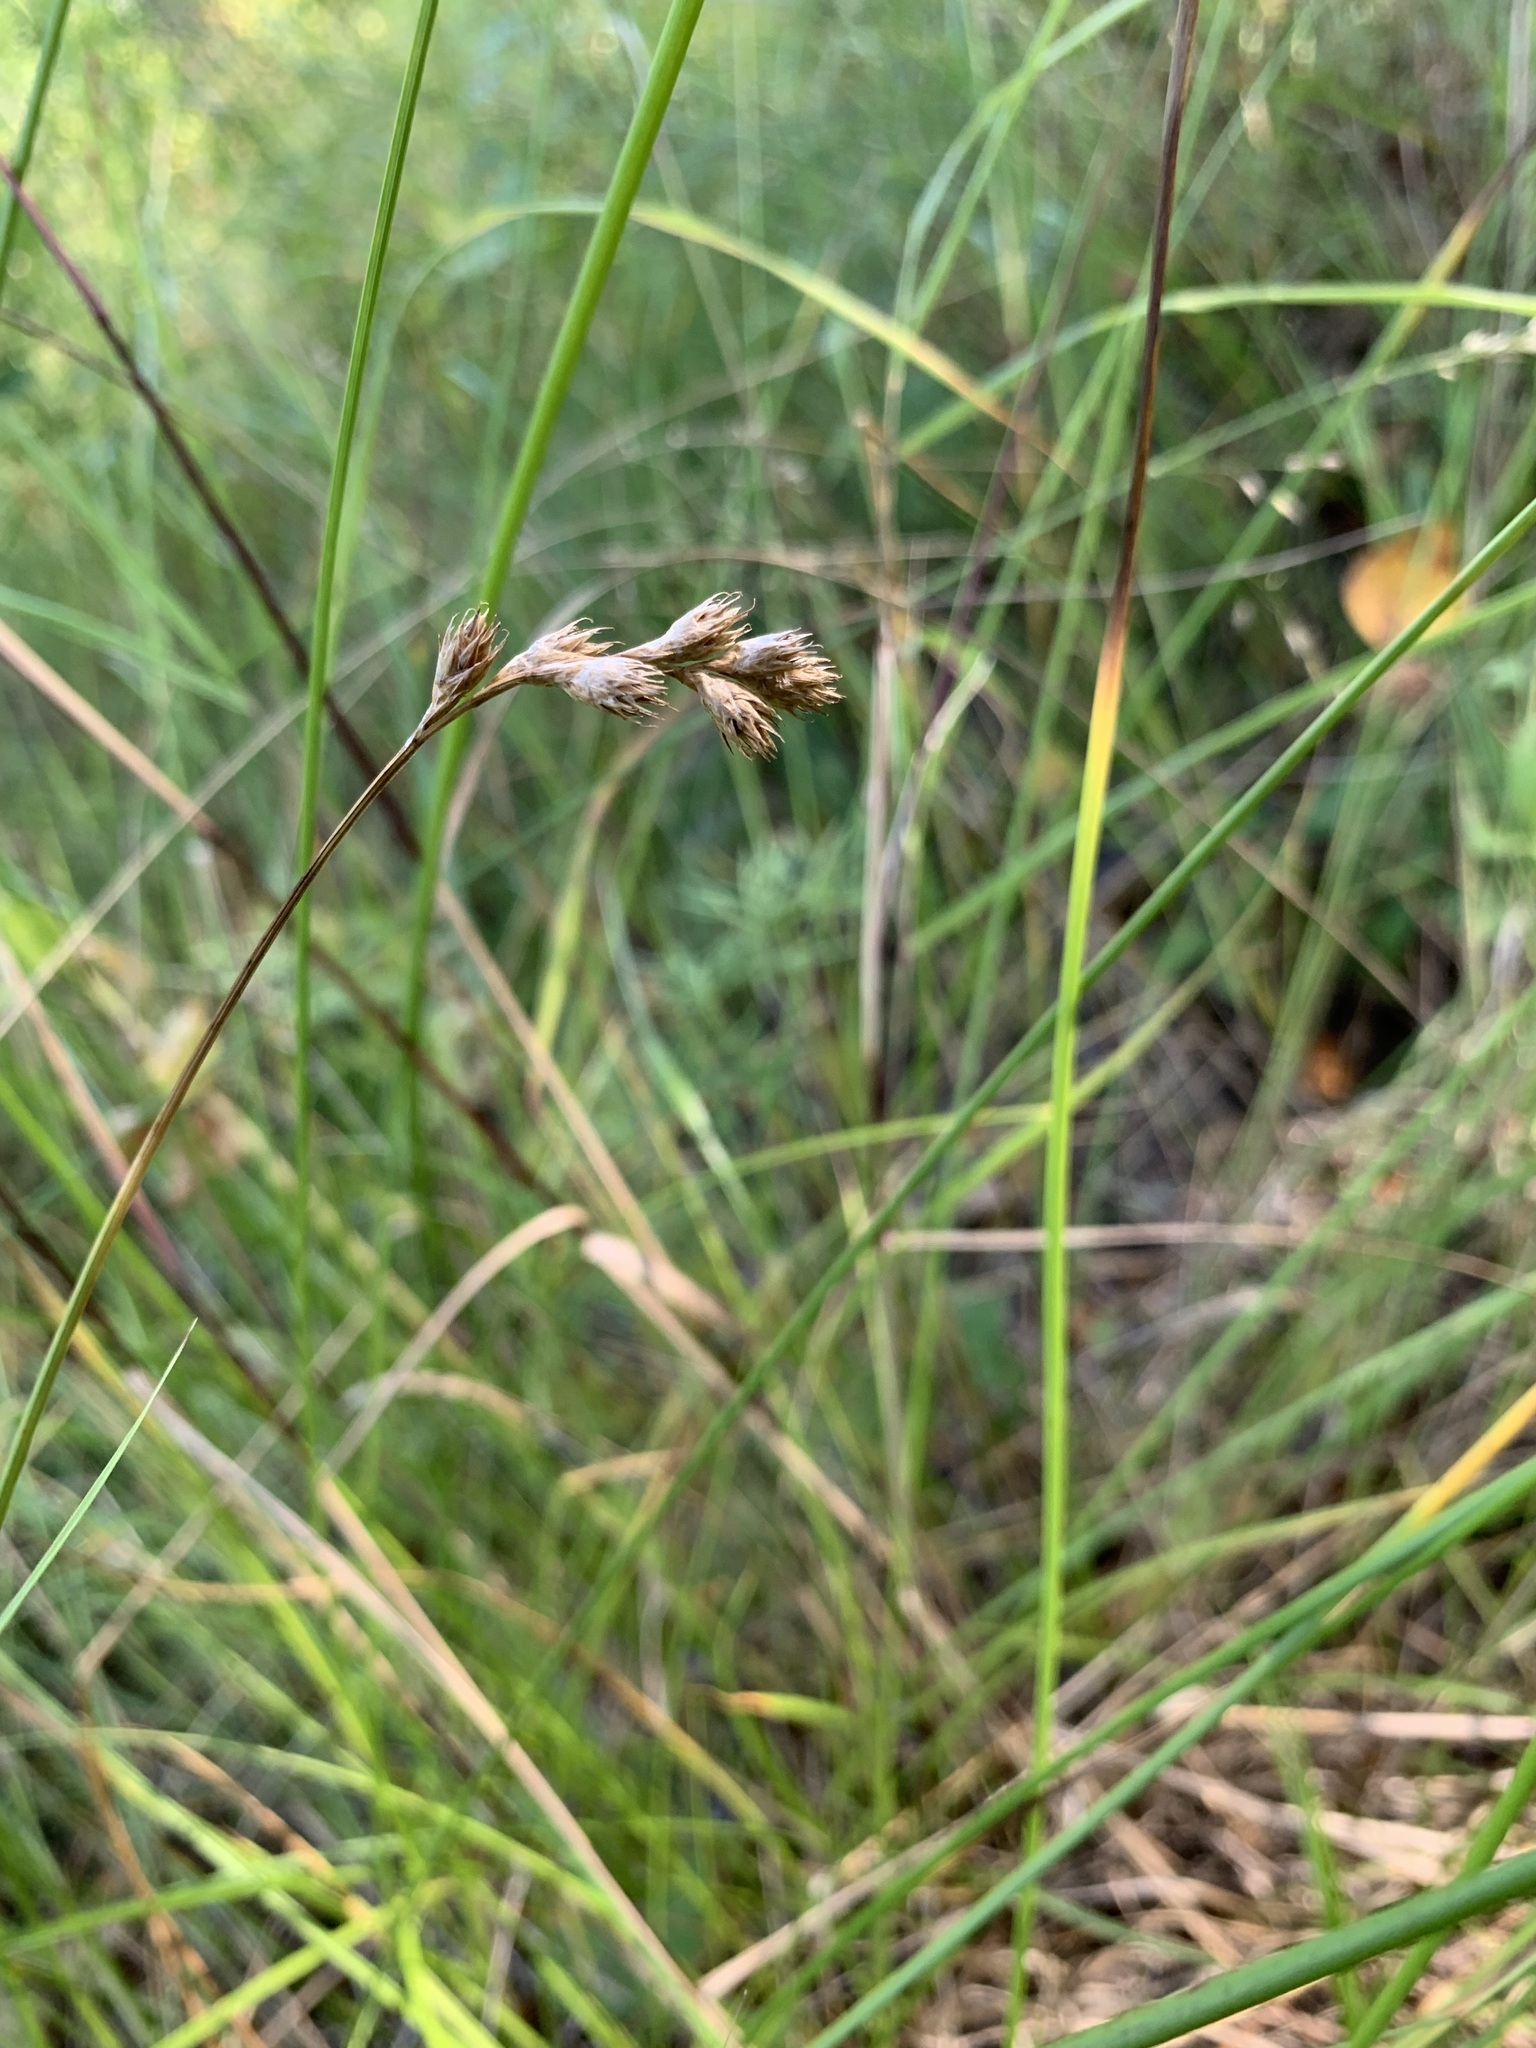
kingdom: Plantae
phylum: Tracheophyta
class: Liliopsida
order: Poales
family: Cyperaceae
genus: Carex
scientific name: Carex leporina
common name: Oval sedge
